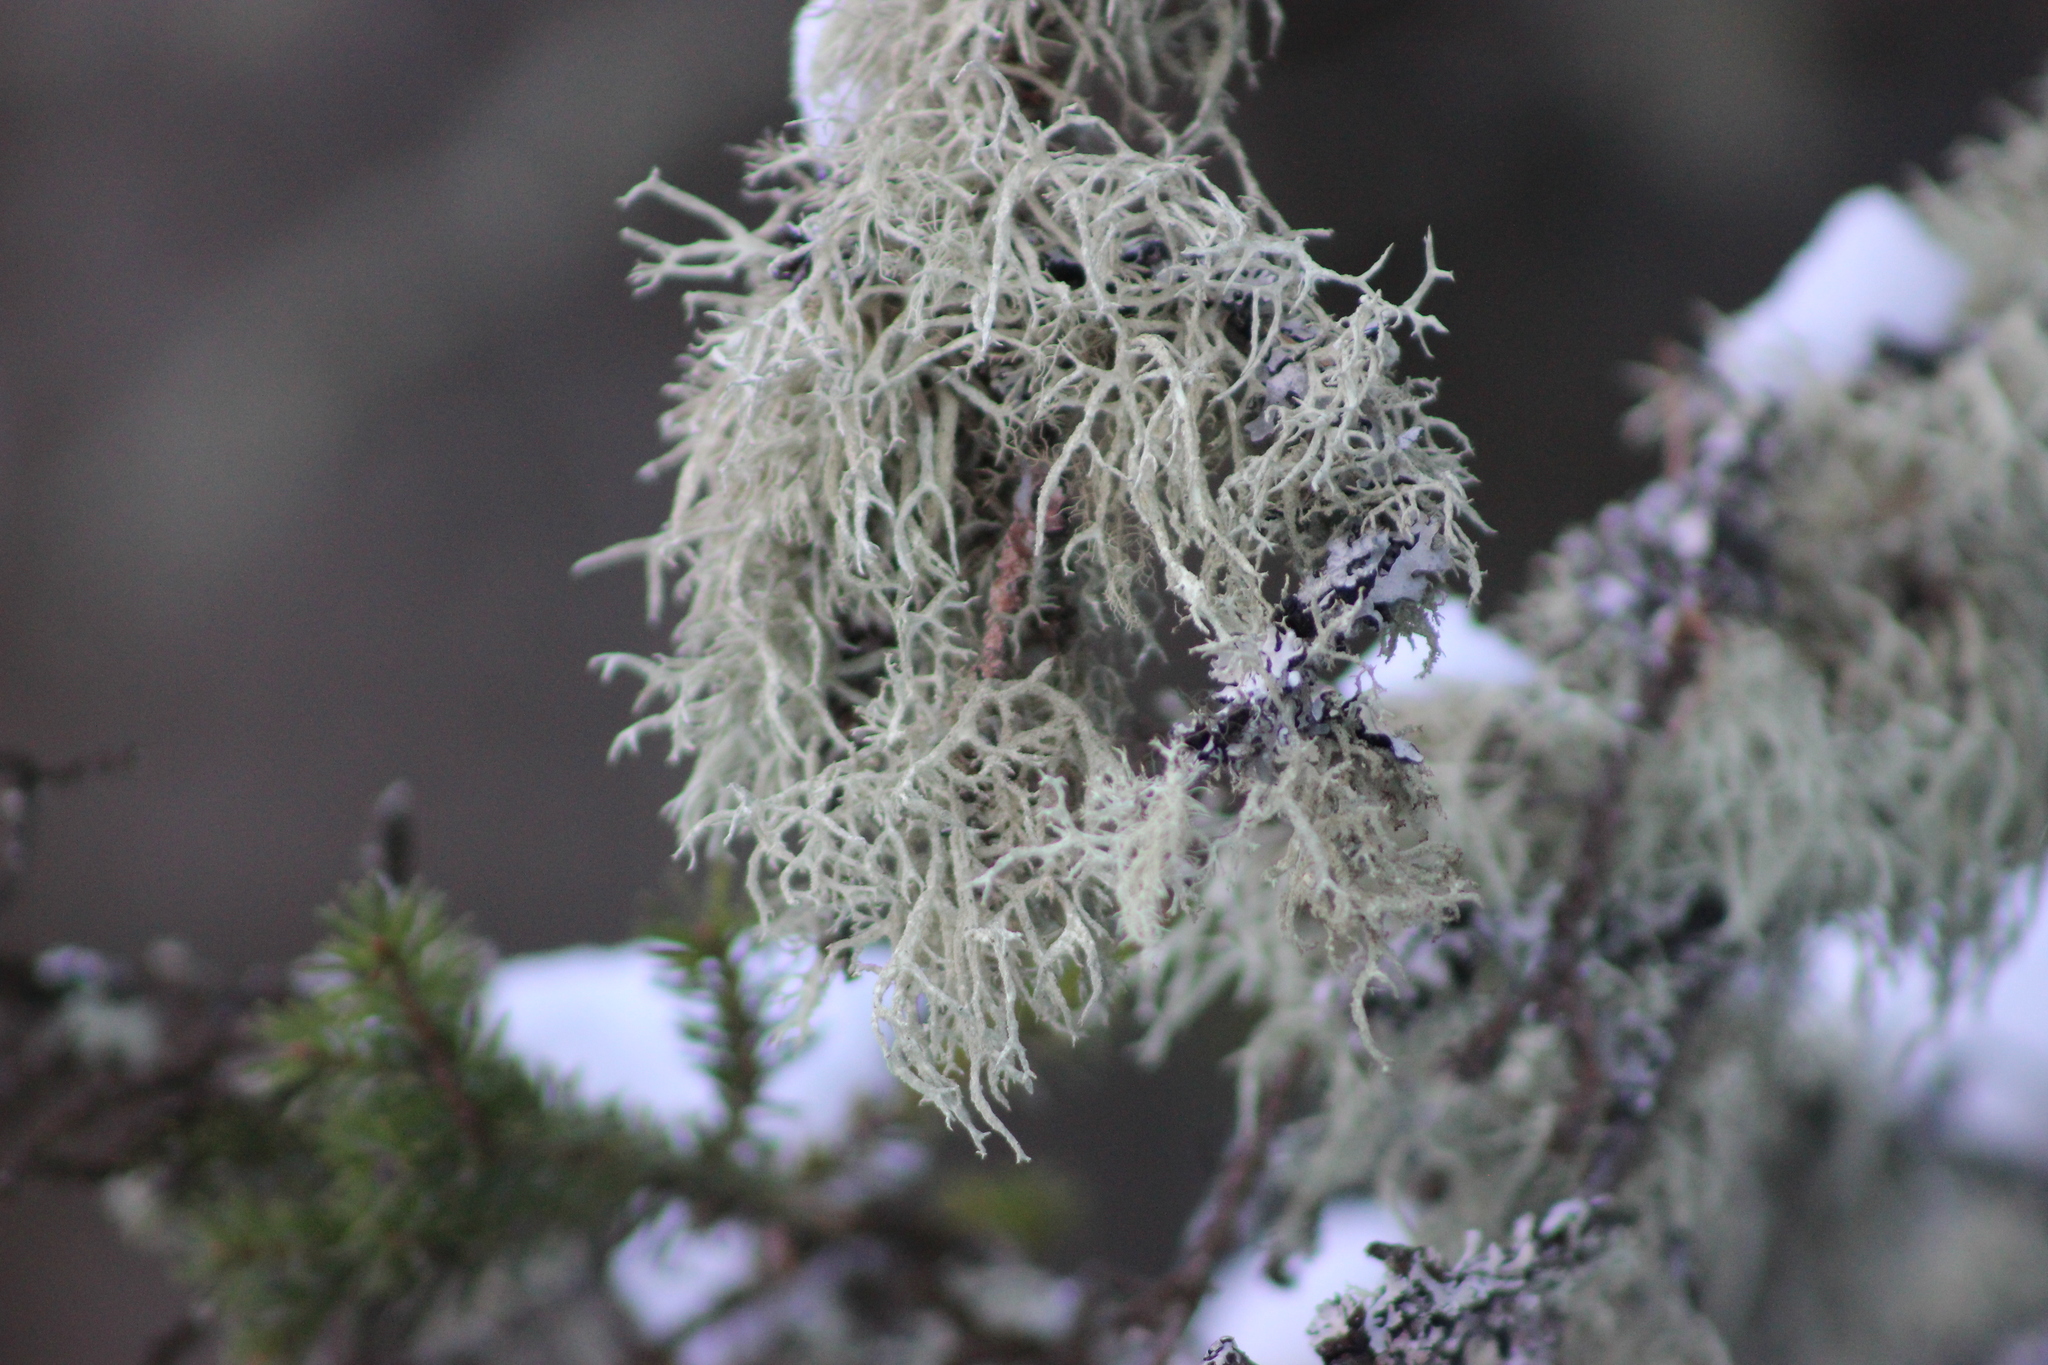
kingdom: Fungi
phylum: Ascomycota
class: Lecanoromycetes
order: Lecanorales
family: Parmeliaceae
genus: Evernia
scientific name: Evernia mesomorpha
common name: Boreal oak moss lichen
